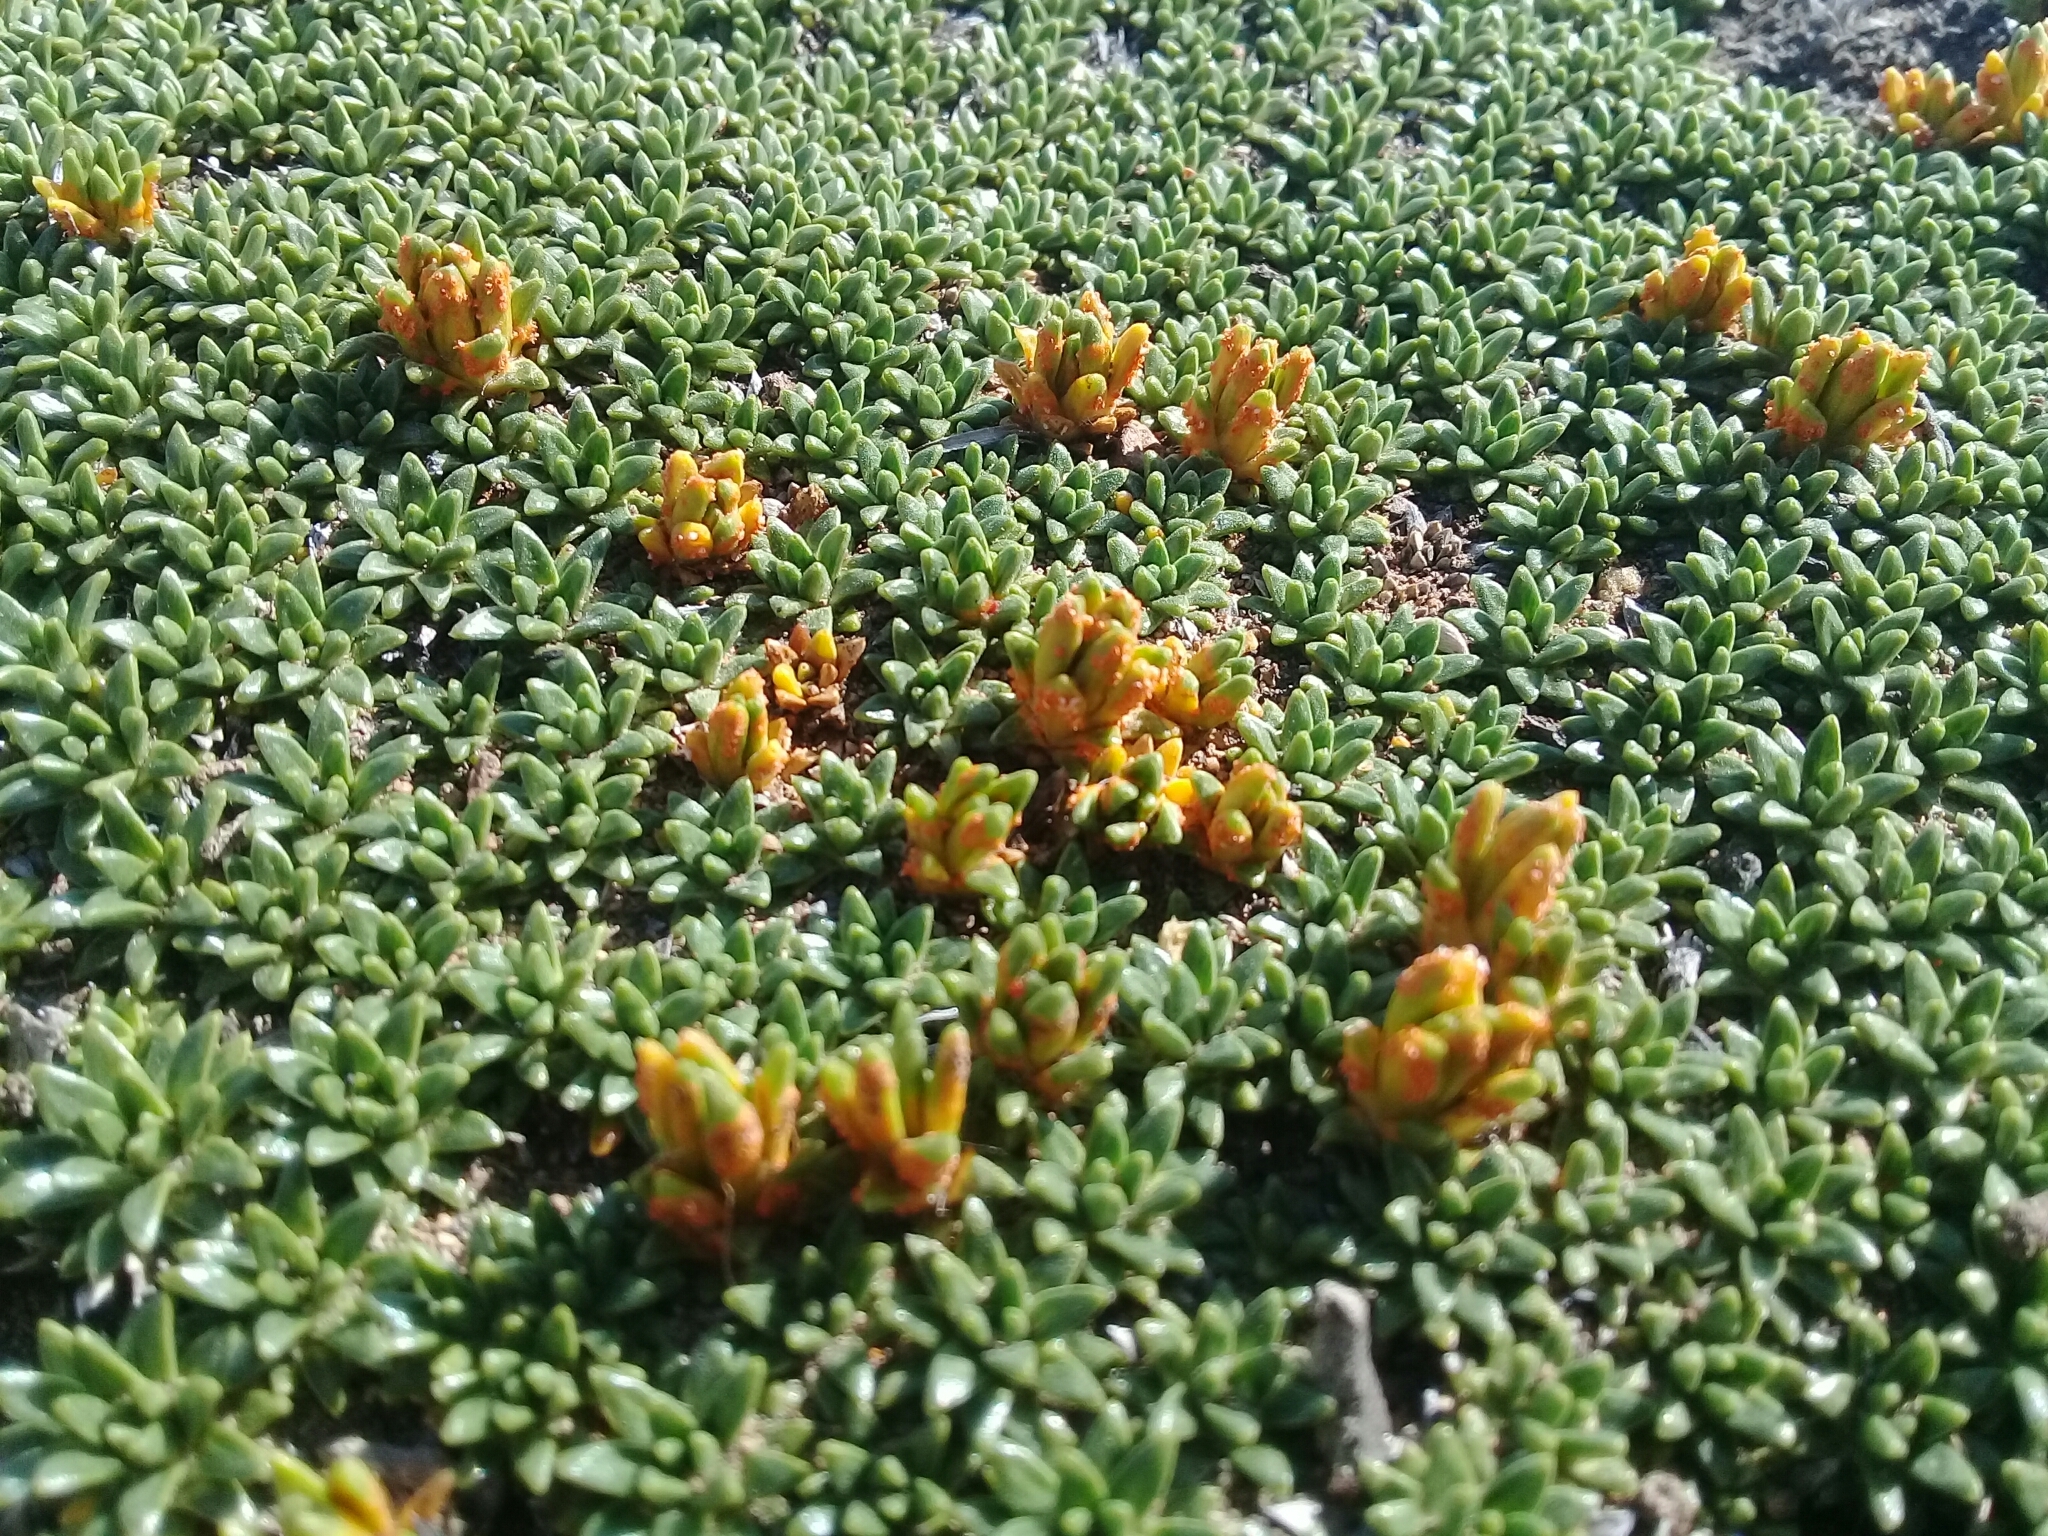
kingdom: Plantae
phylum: Tracheophyta
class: Magnoliopsida
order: Apiales
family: Apiaceae
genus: Azorella
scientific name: Azorella monantha
